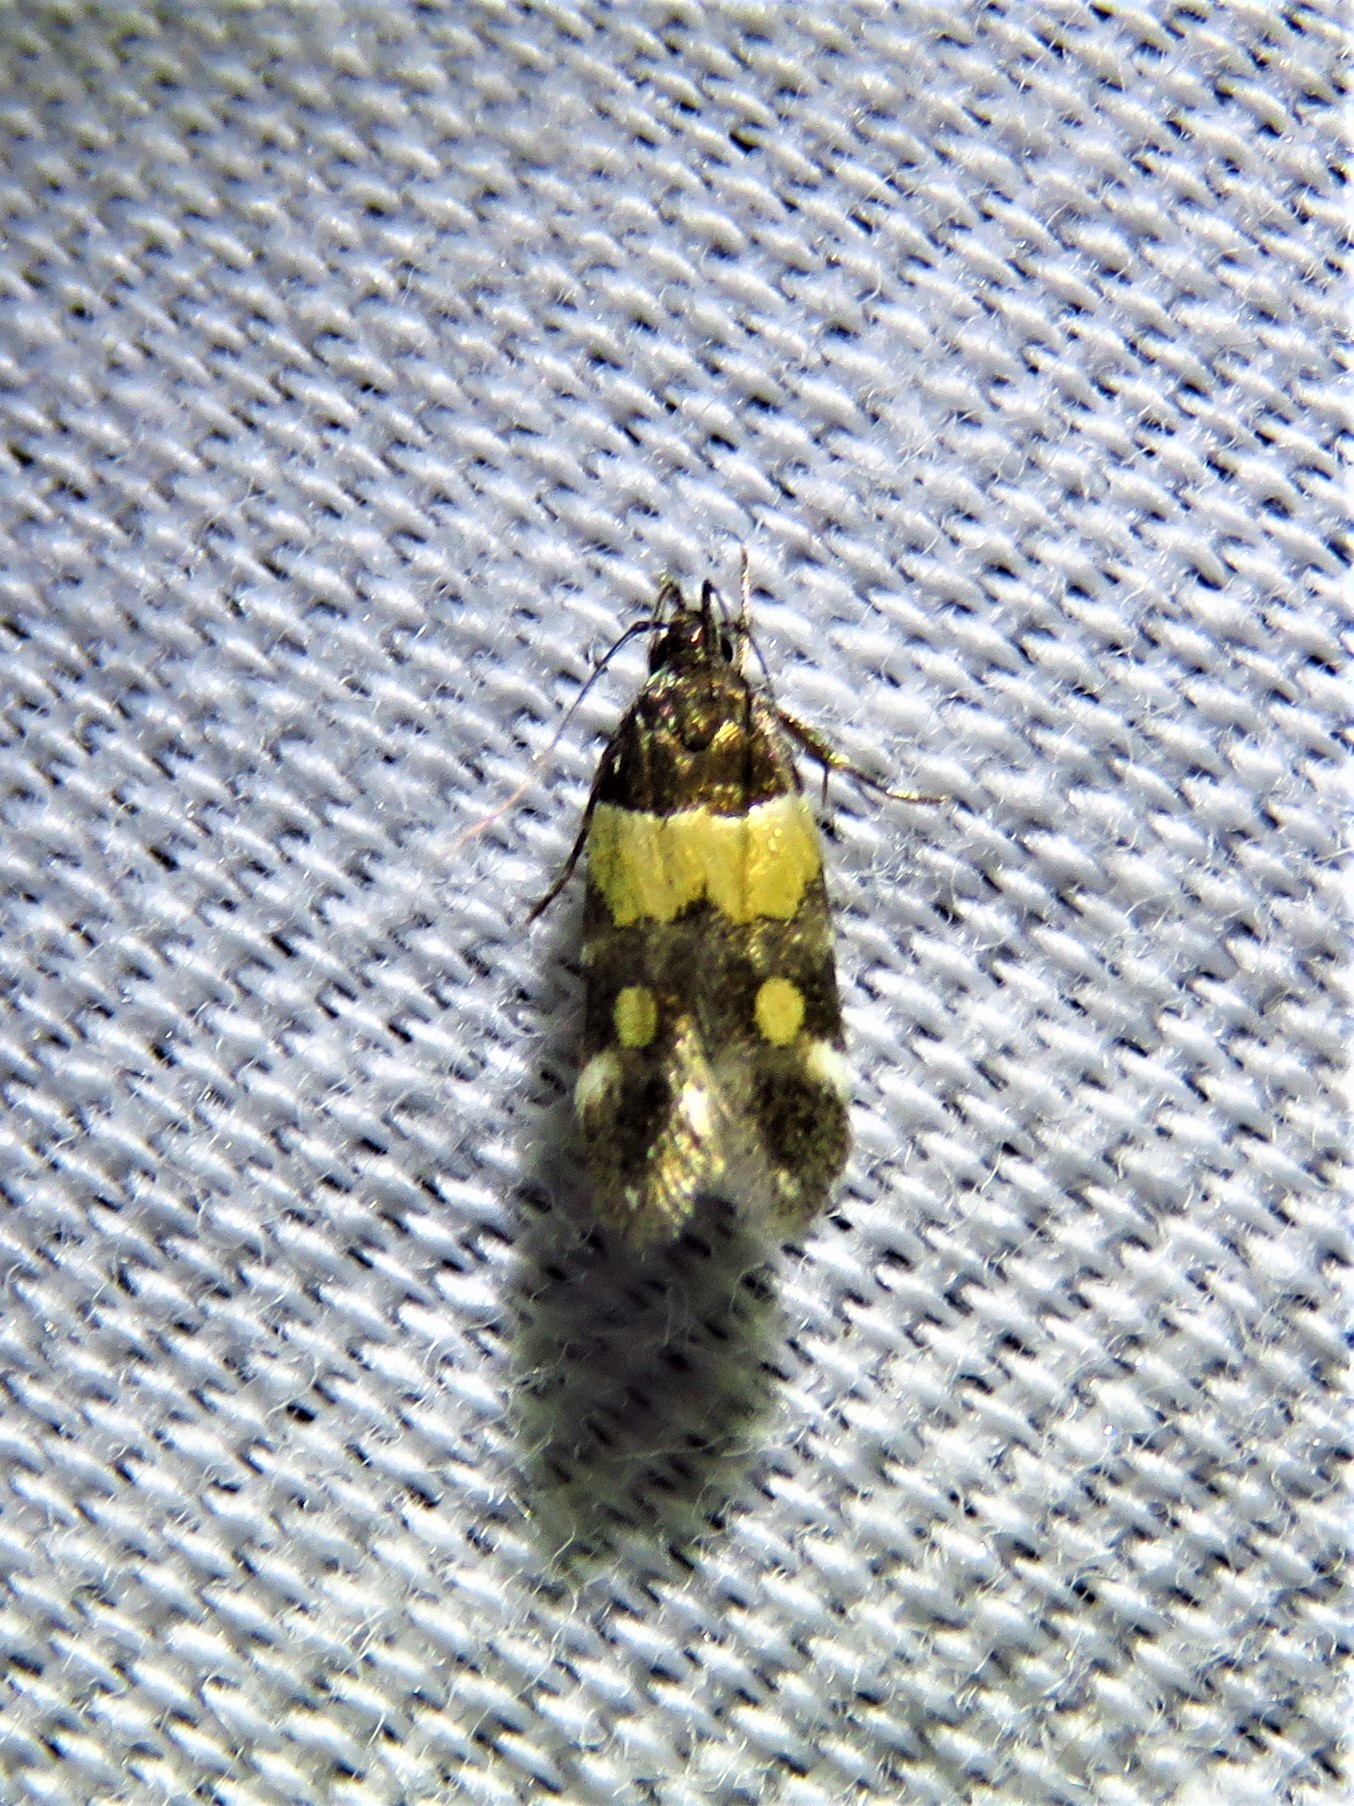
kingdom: Animalia
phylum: Arthropoda
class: Insecta
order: Lepidoptera
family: Momphidae
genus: Triclonella
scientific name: Triclonella determinatella
